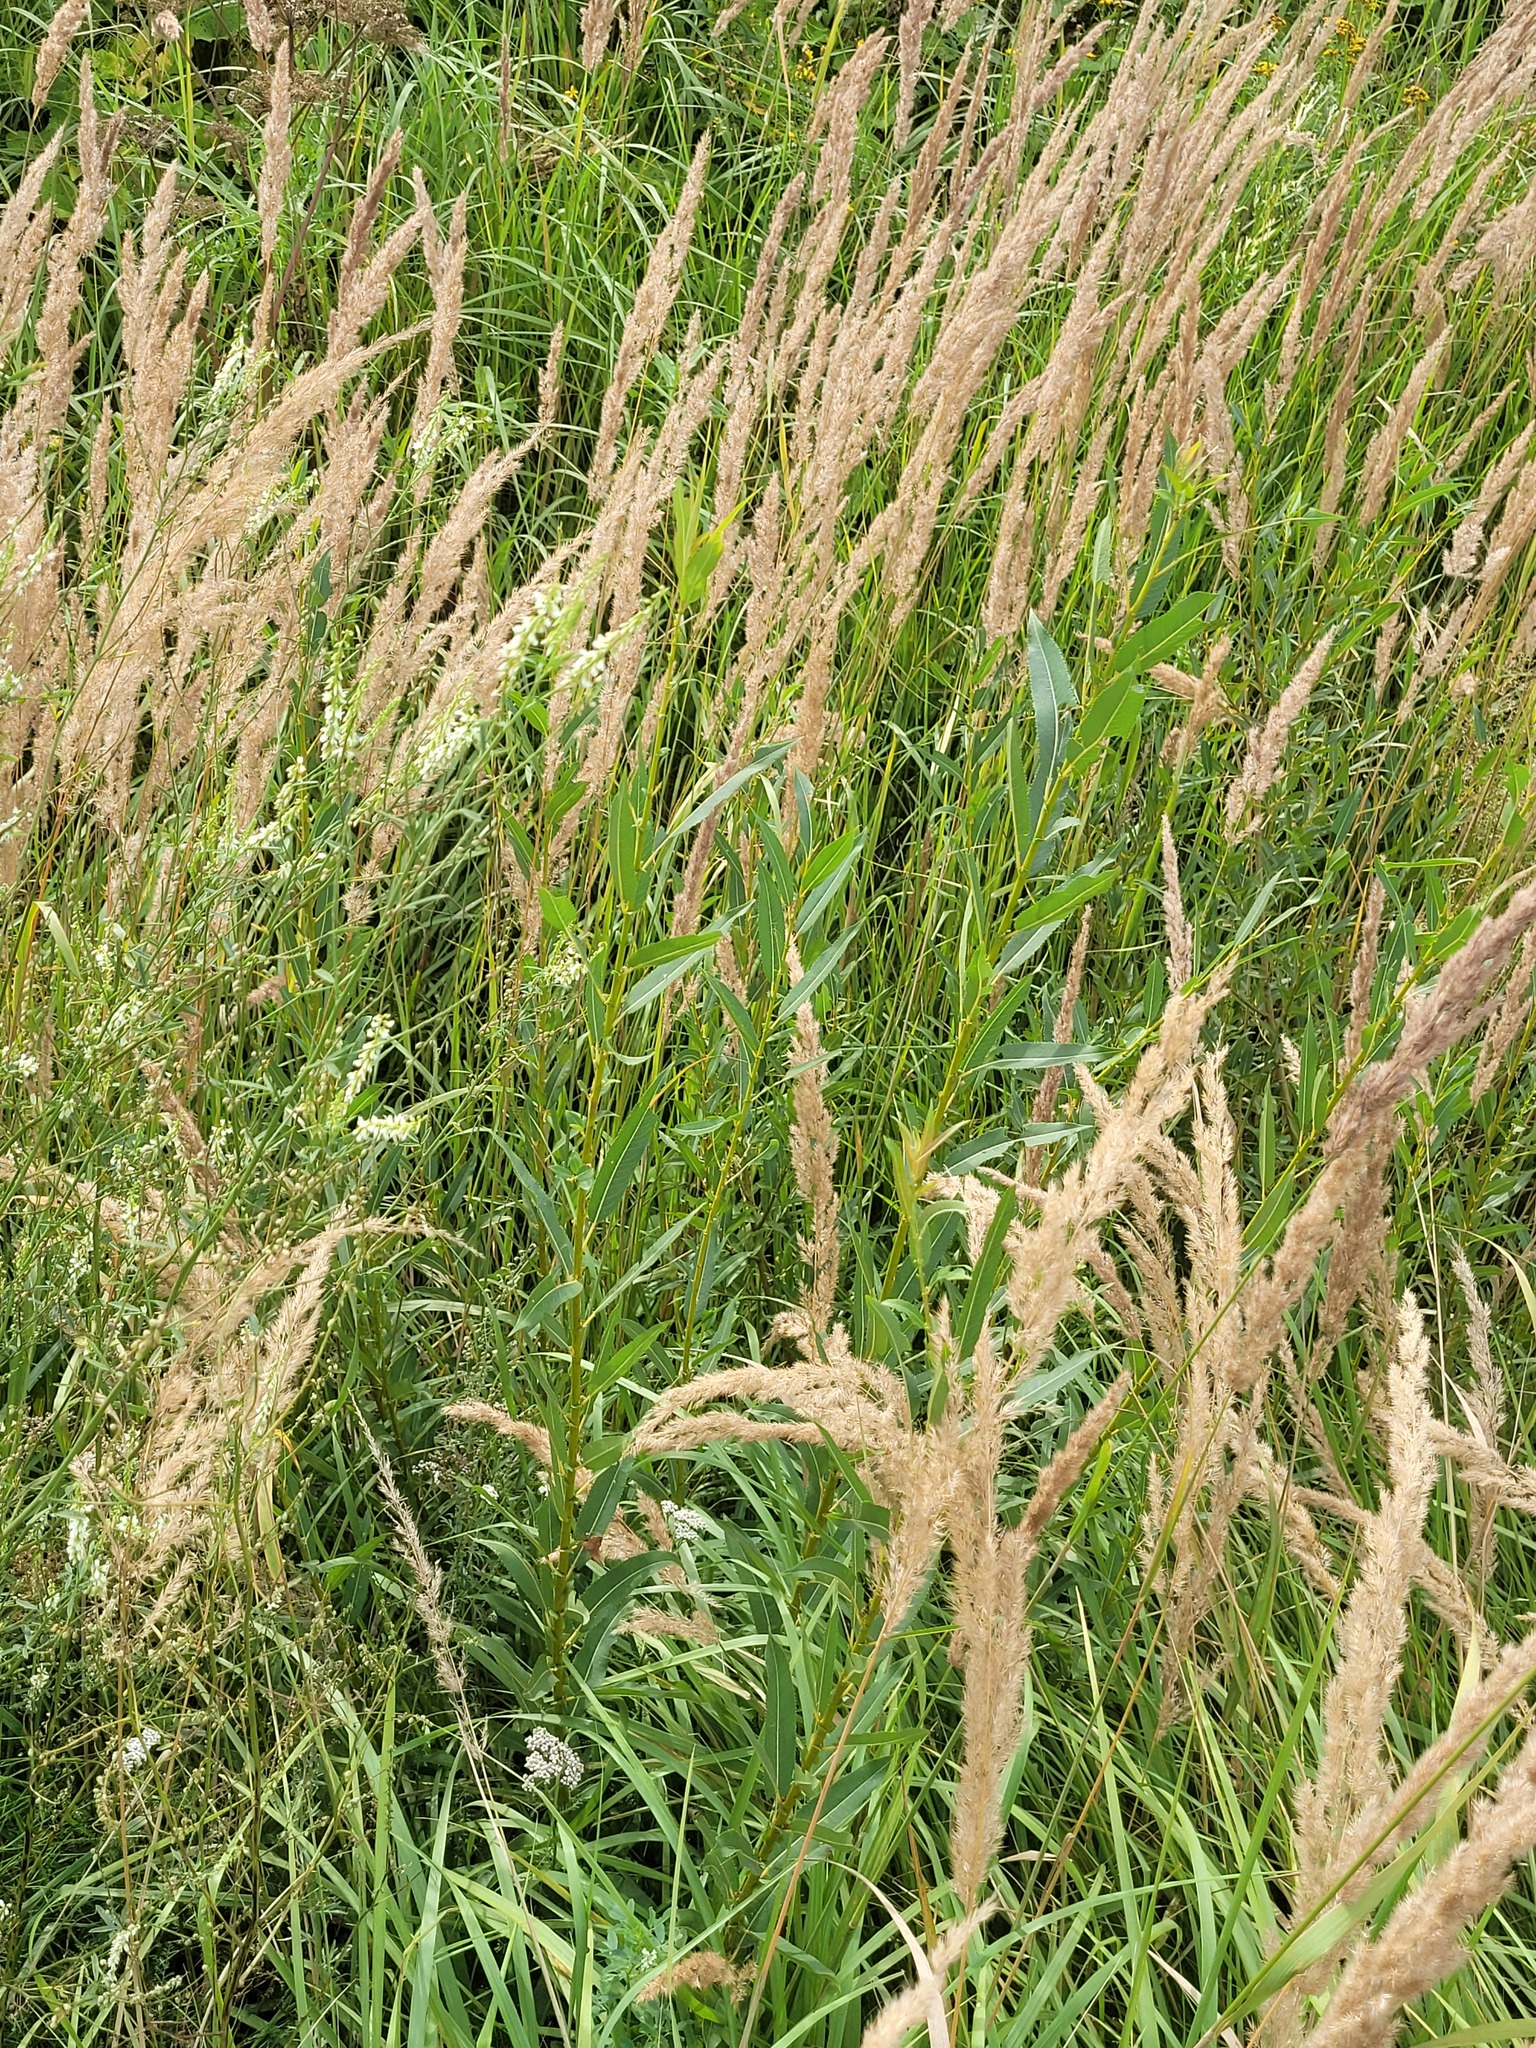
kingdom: Plantae
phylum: Tracheophyta
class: Magnoliopsida
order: Malpighiales
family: Salicaceae
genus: Salix
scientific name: Salix triandra
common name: Almond willow
